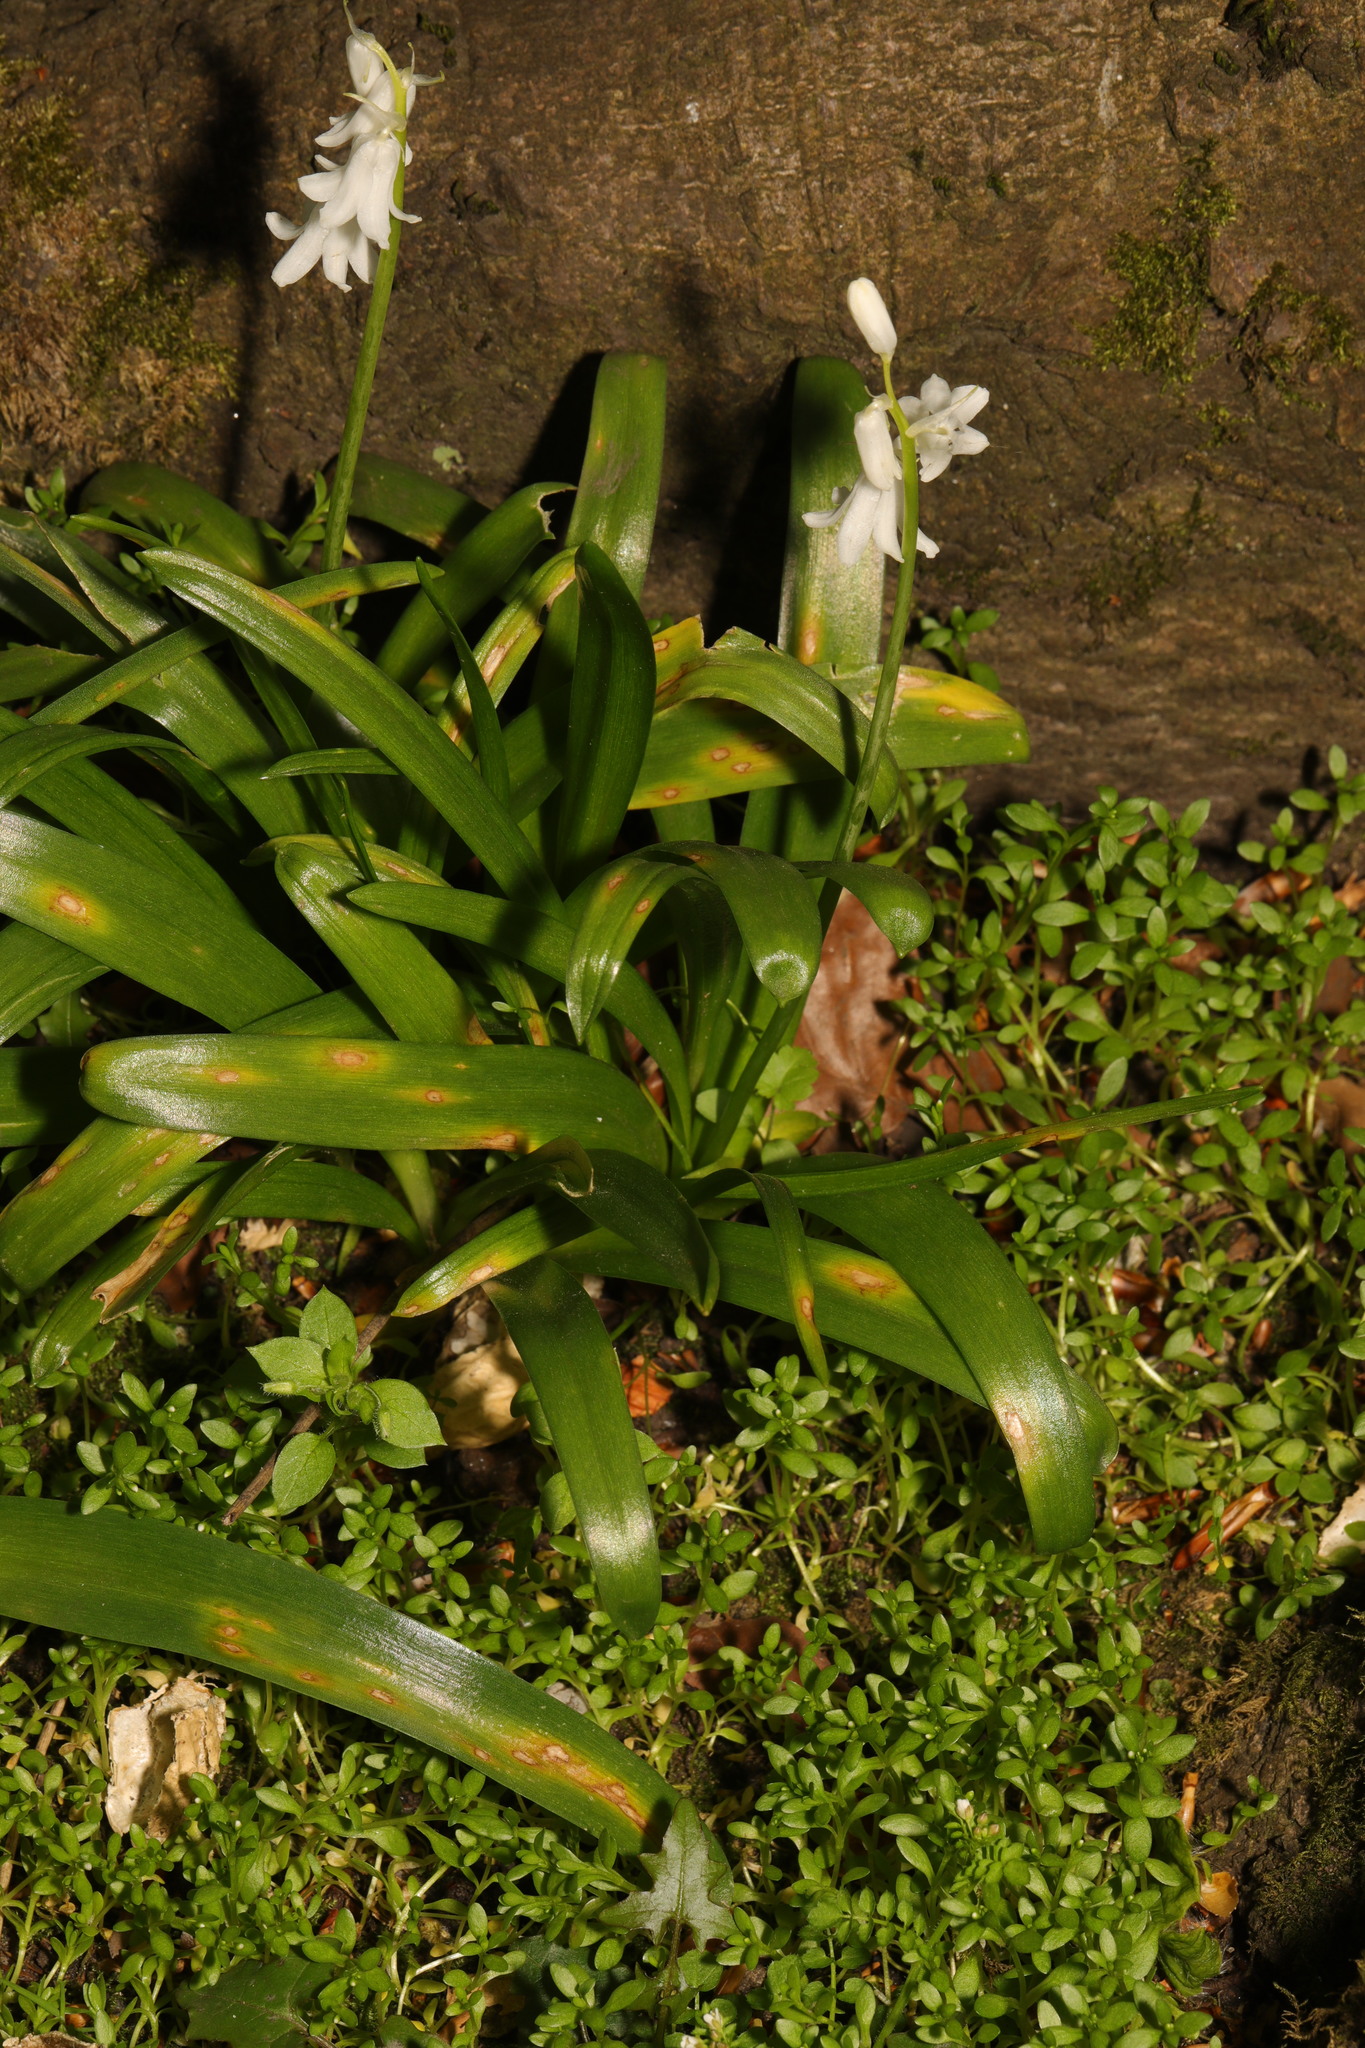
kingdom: Plantae
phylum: Tracheophyta
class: Liliopsida
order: Asparagales
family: Asparagaceae
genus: Hyacinthoides
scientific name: Hyacinthoides massartiana
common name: Hyacinthoides
